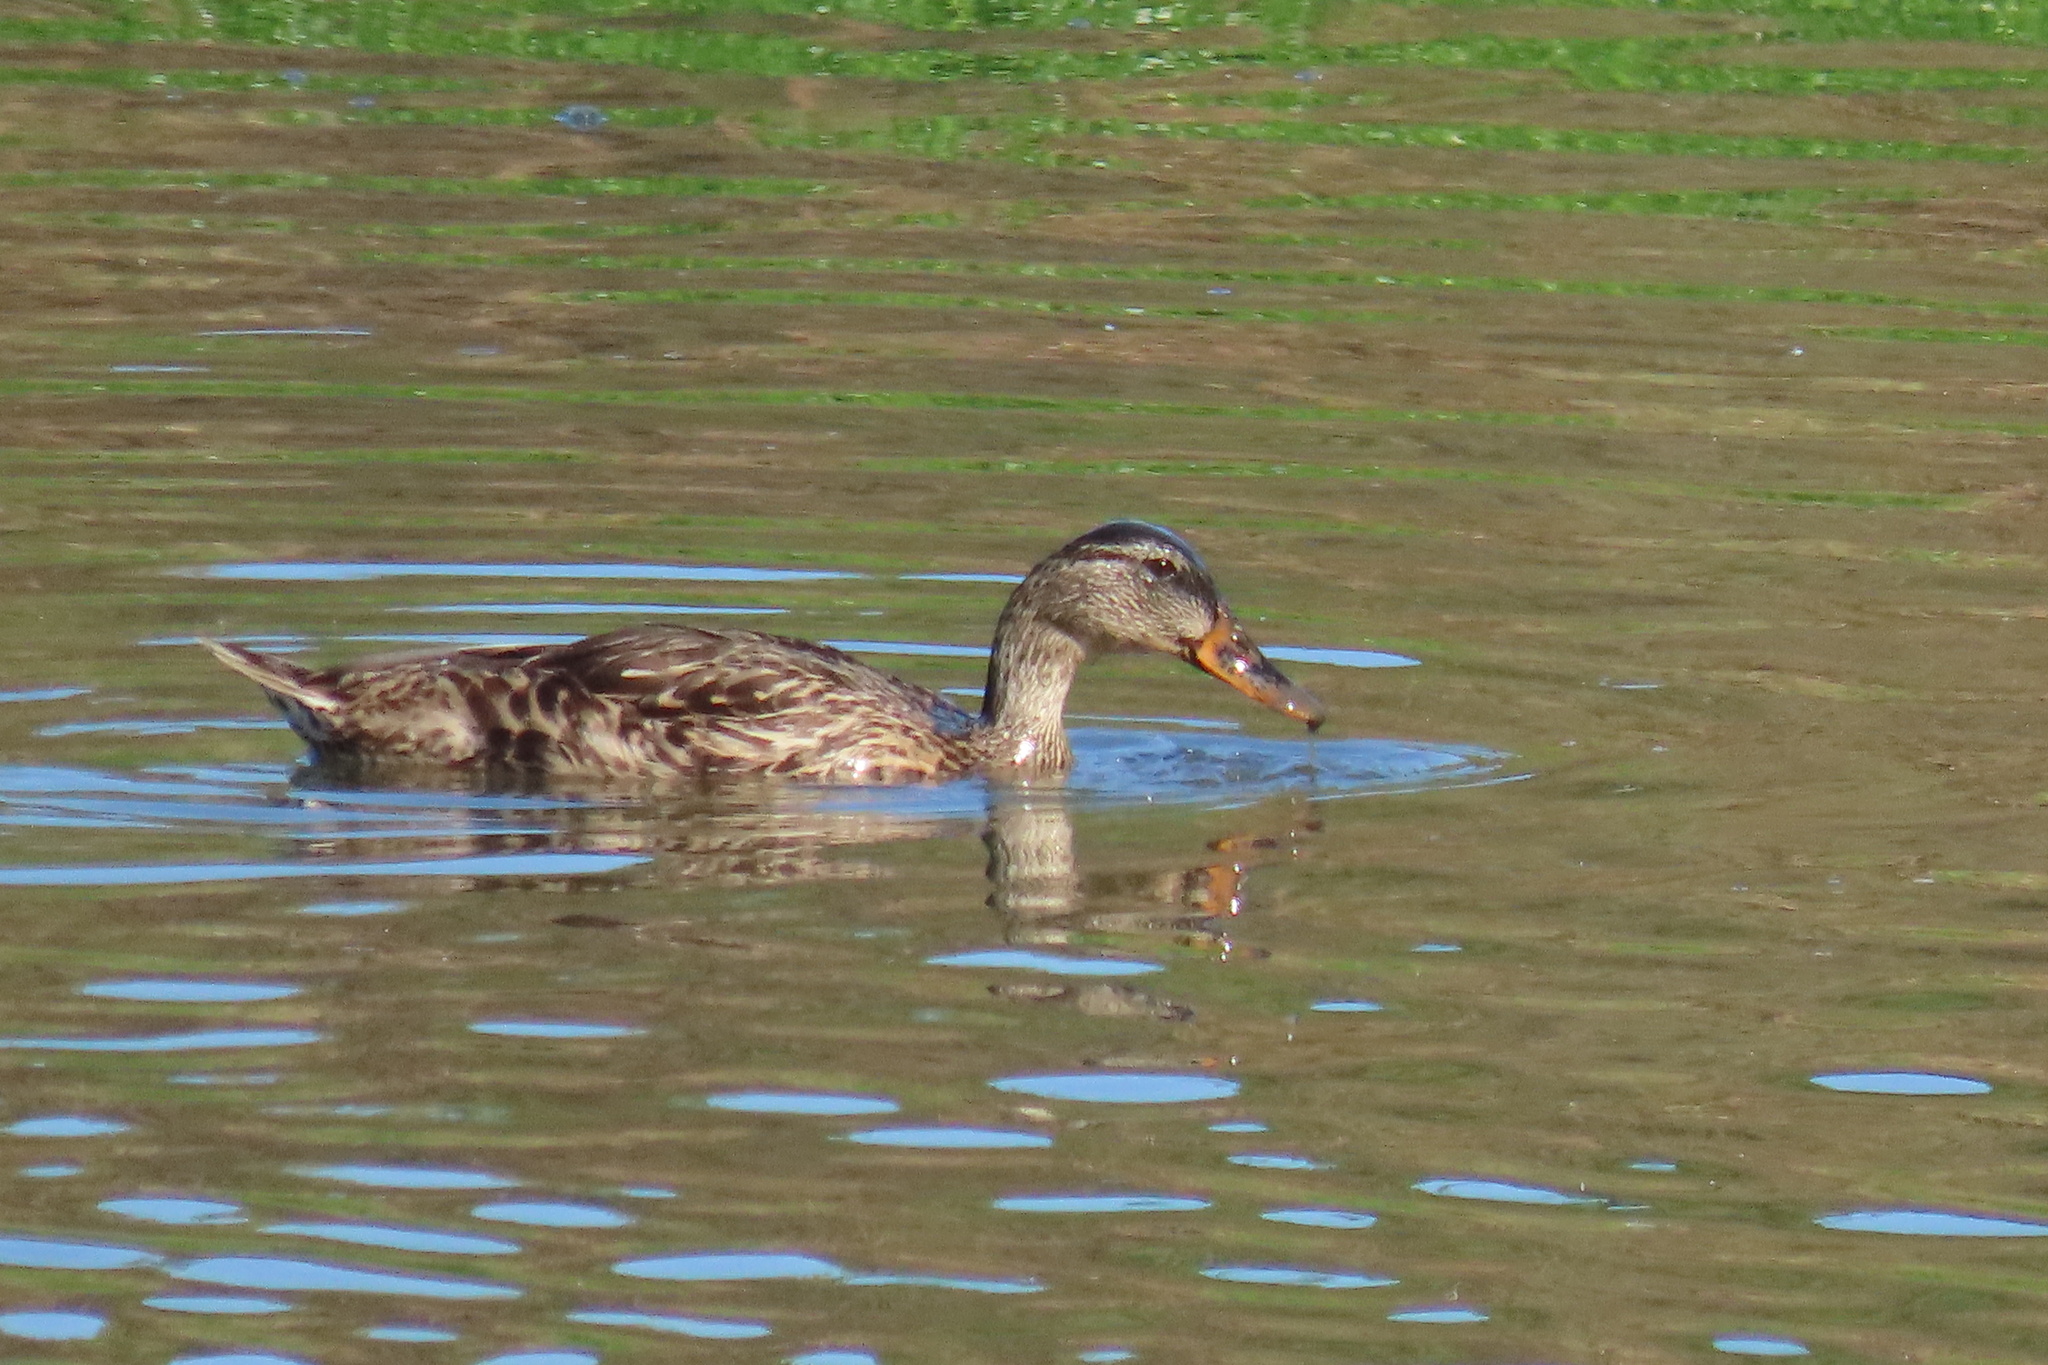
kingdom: Animalia
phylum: Chordata
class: Aves
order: Anseriformes
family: Anatidae
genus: Anas
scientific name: Anas platyrhynchos
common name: Mallard
